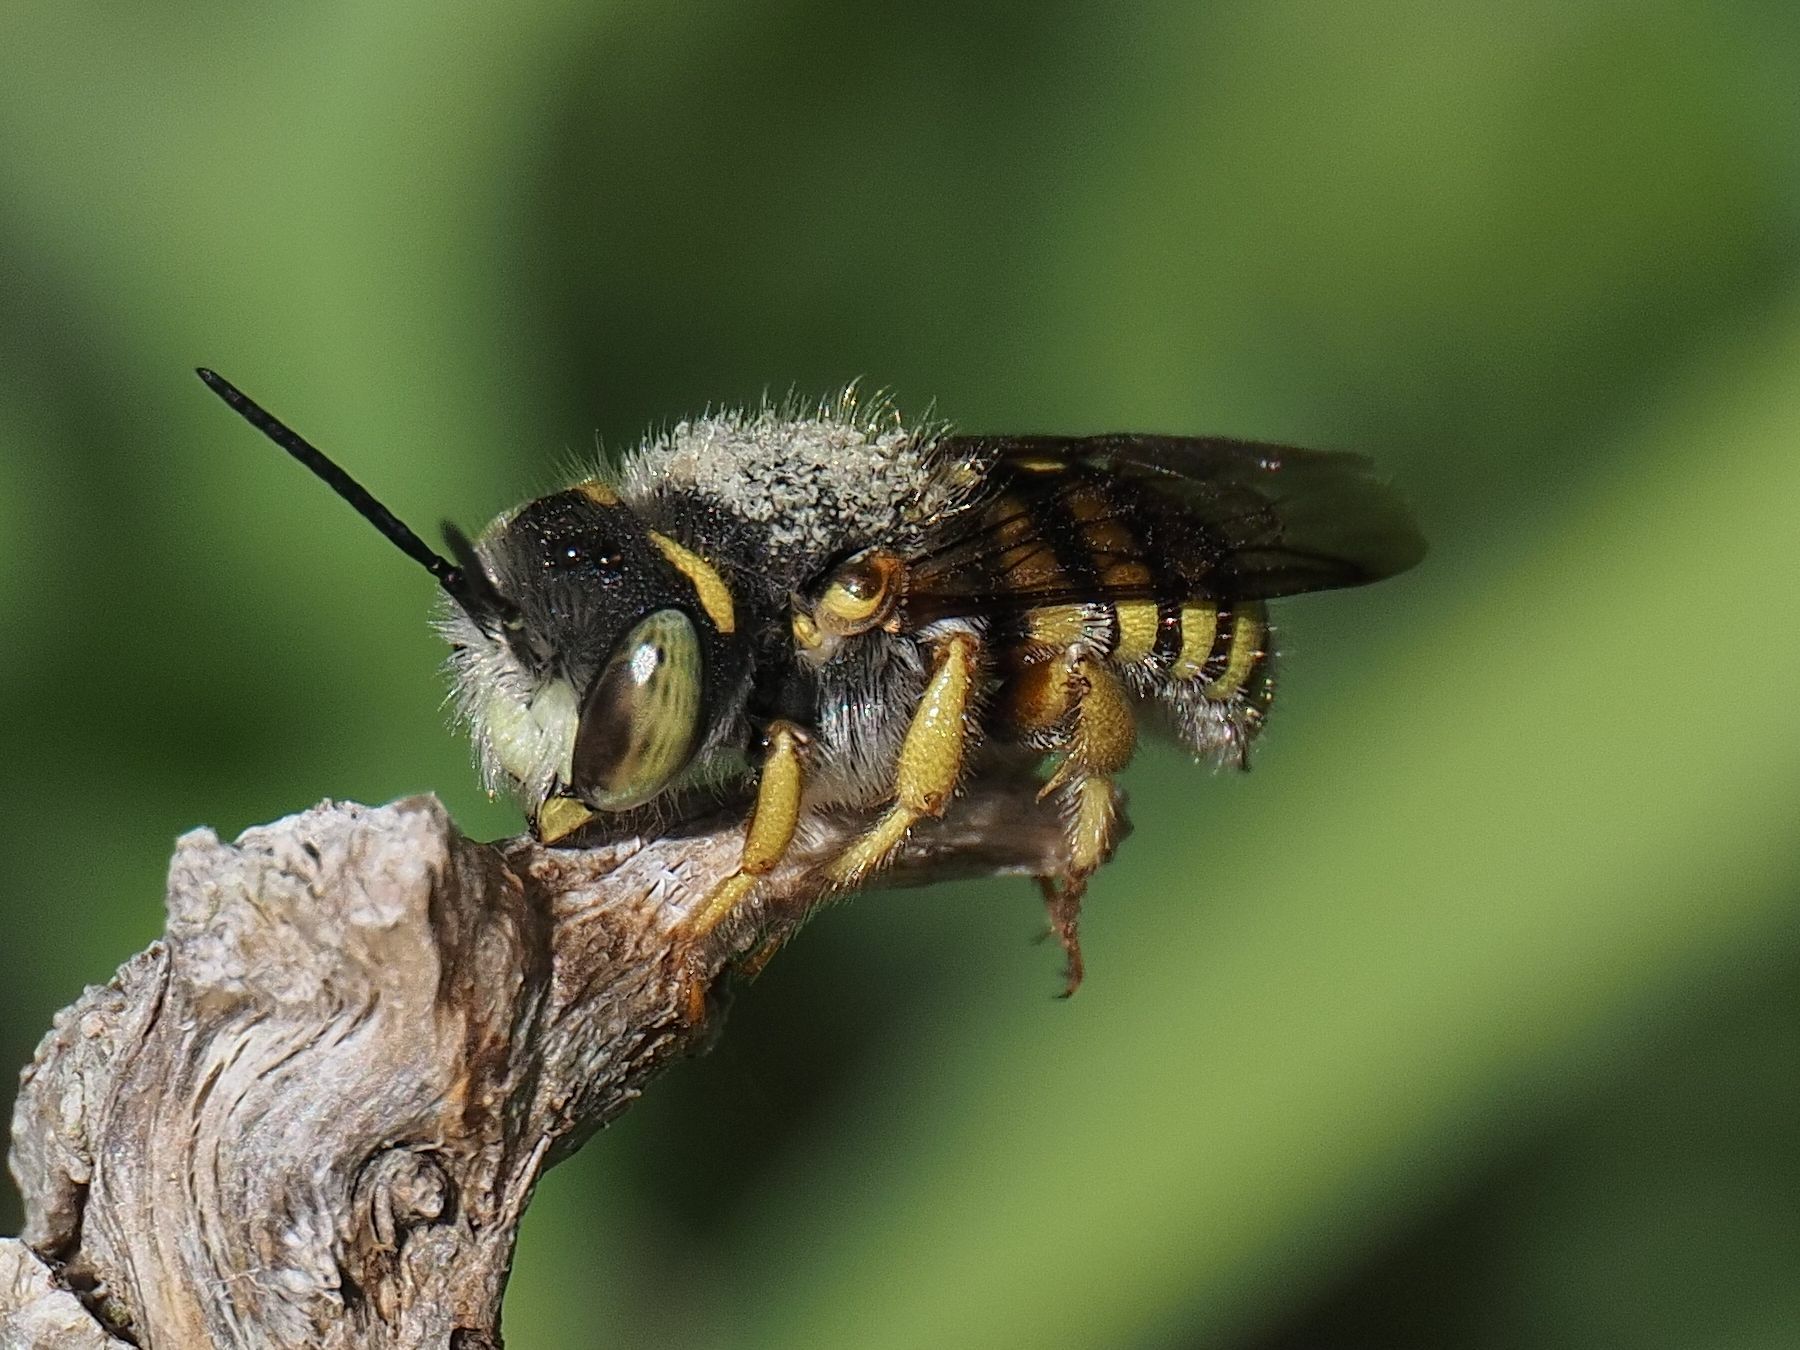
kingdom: Animalia
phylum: Arthropoda
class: Insecta
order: Hymenoptera
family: Megachilidae
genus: Anthidium
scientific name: Anthidium oblongatum
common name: Oblong wool carder bee
